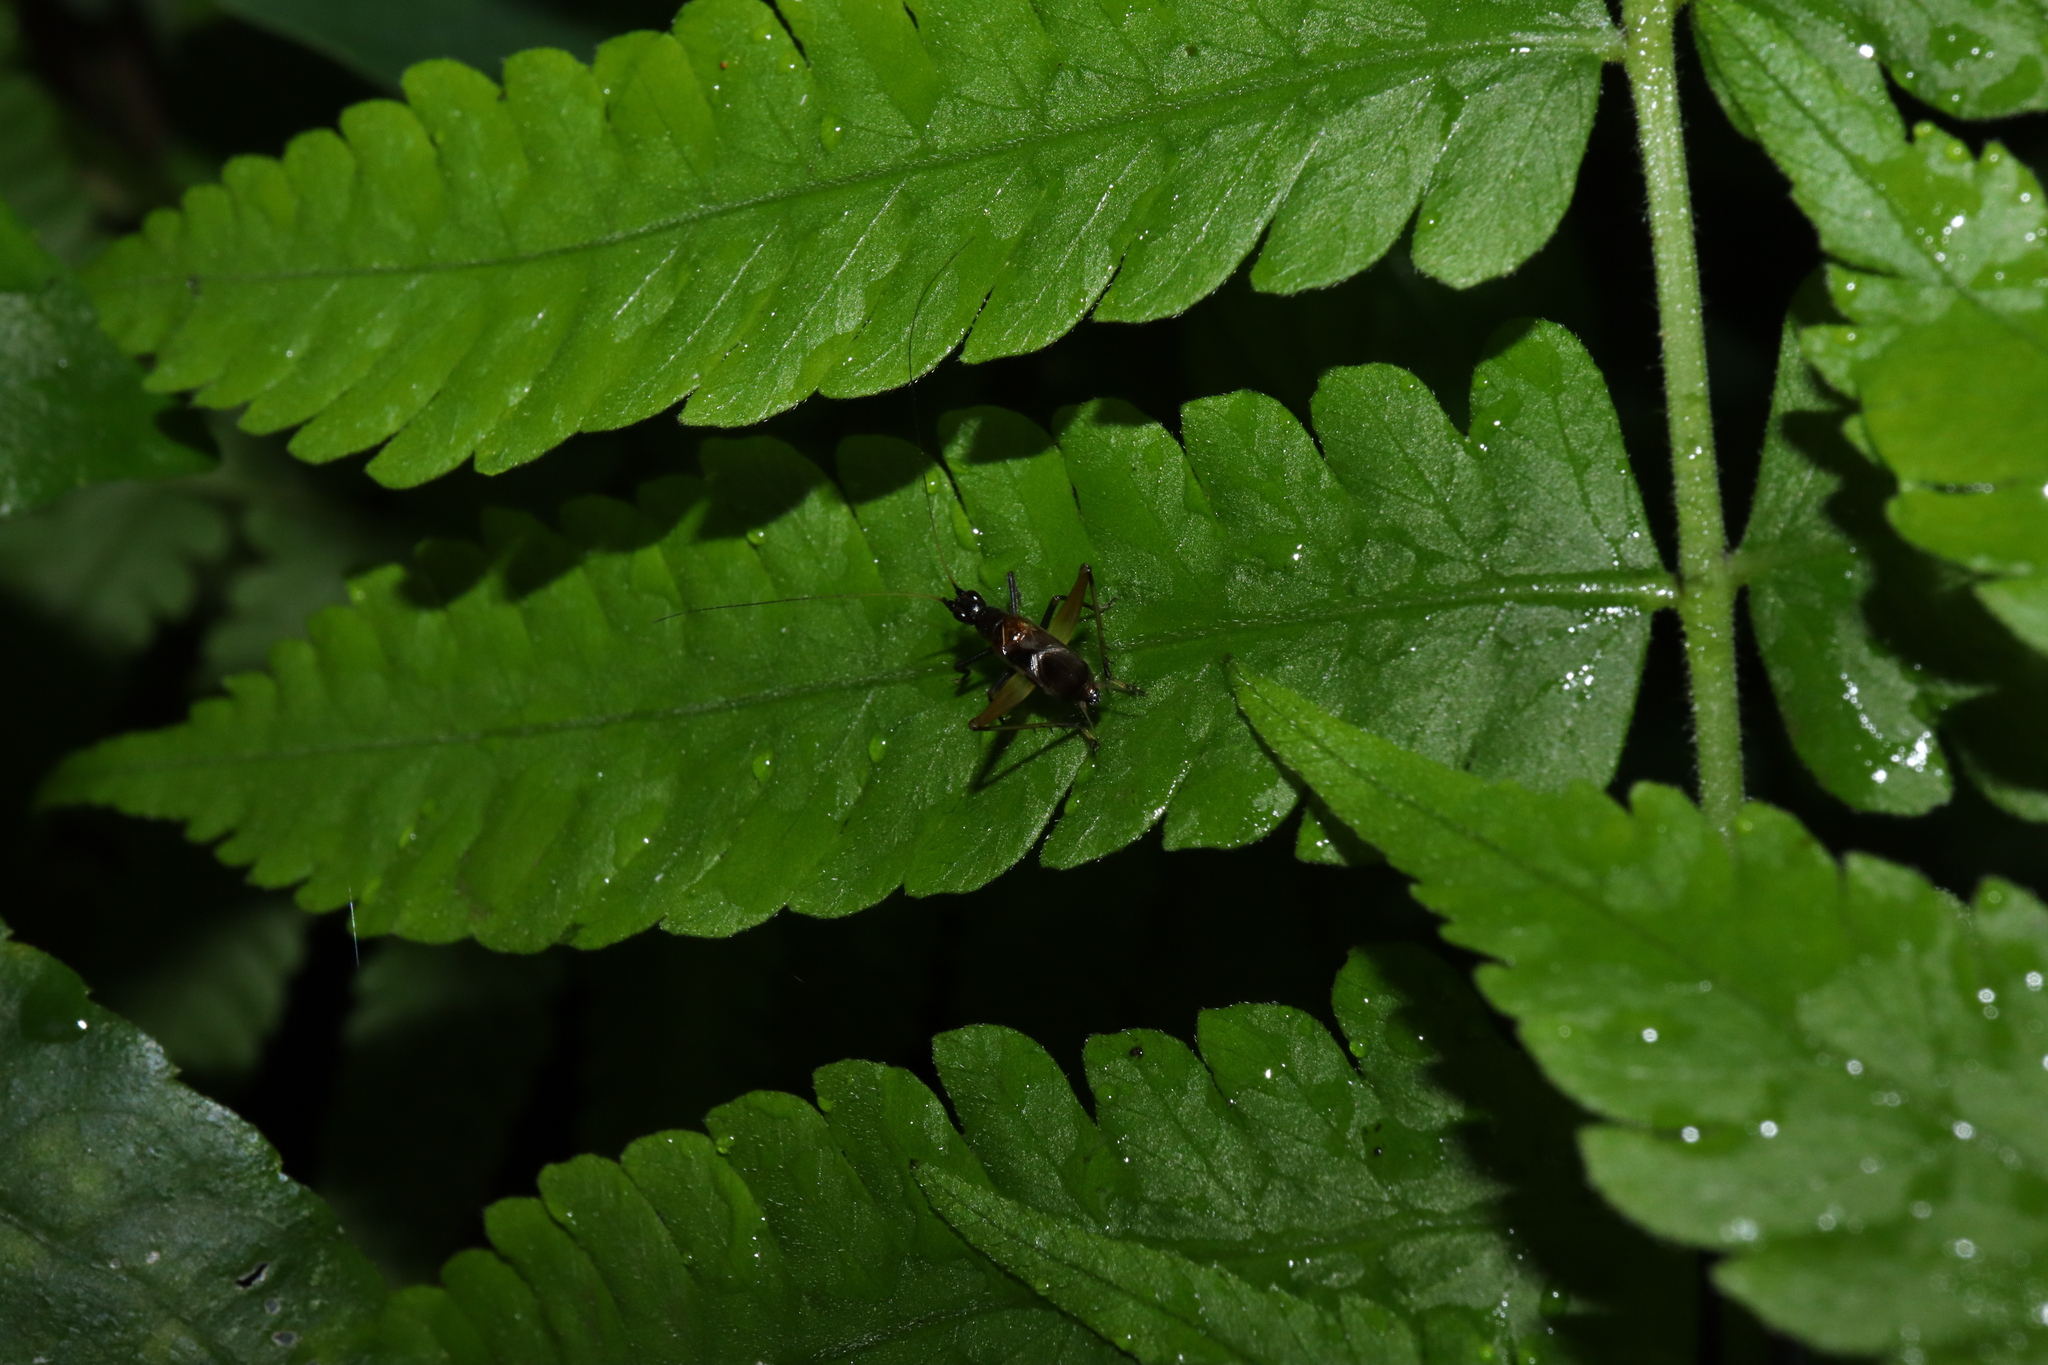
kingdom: Animalia
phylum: Arthropoda
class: Insecta
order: Orthoptera
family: Trigonidiidae
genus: Homoeoxipha
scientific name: Homoeoxipha lycoides
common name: Tinkling leaf-runner
